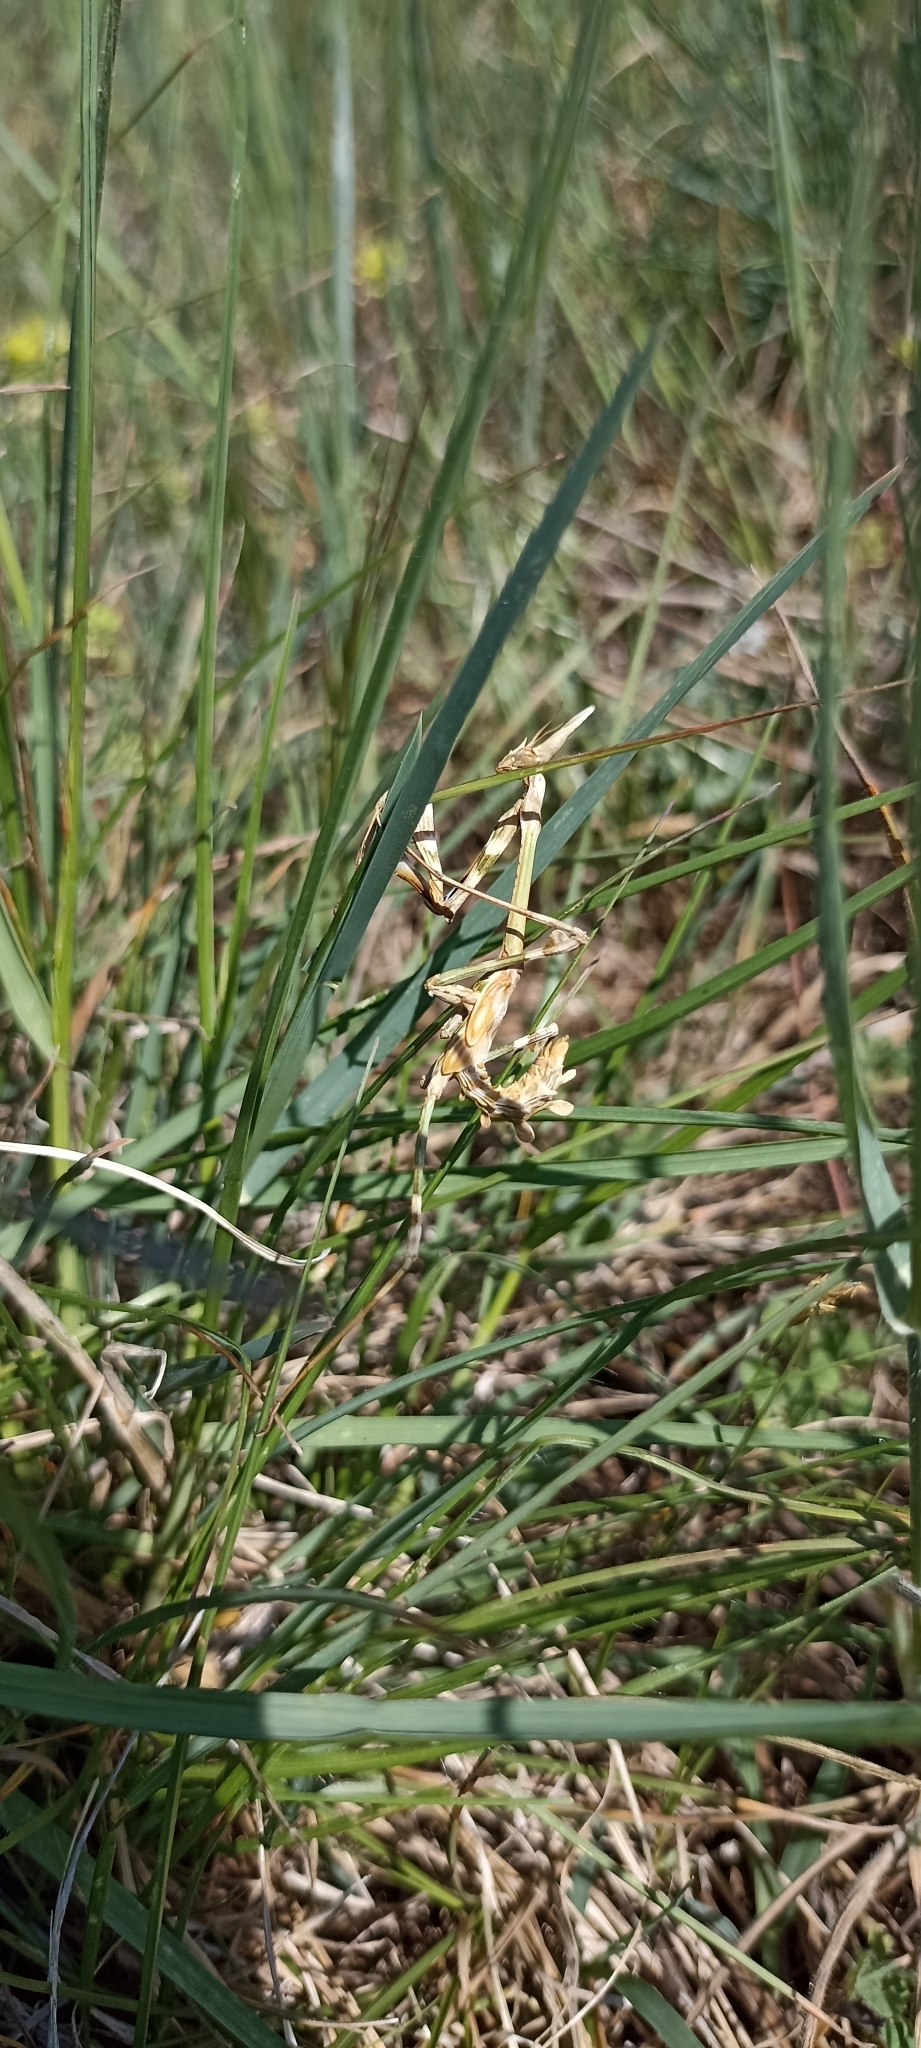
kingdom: Animalia
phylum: Arthropoda
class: Insecta
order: Mantodea
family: Empusidae
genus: Empusa
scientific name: Empusa pennata
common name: Conehead mantis
